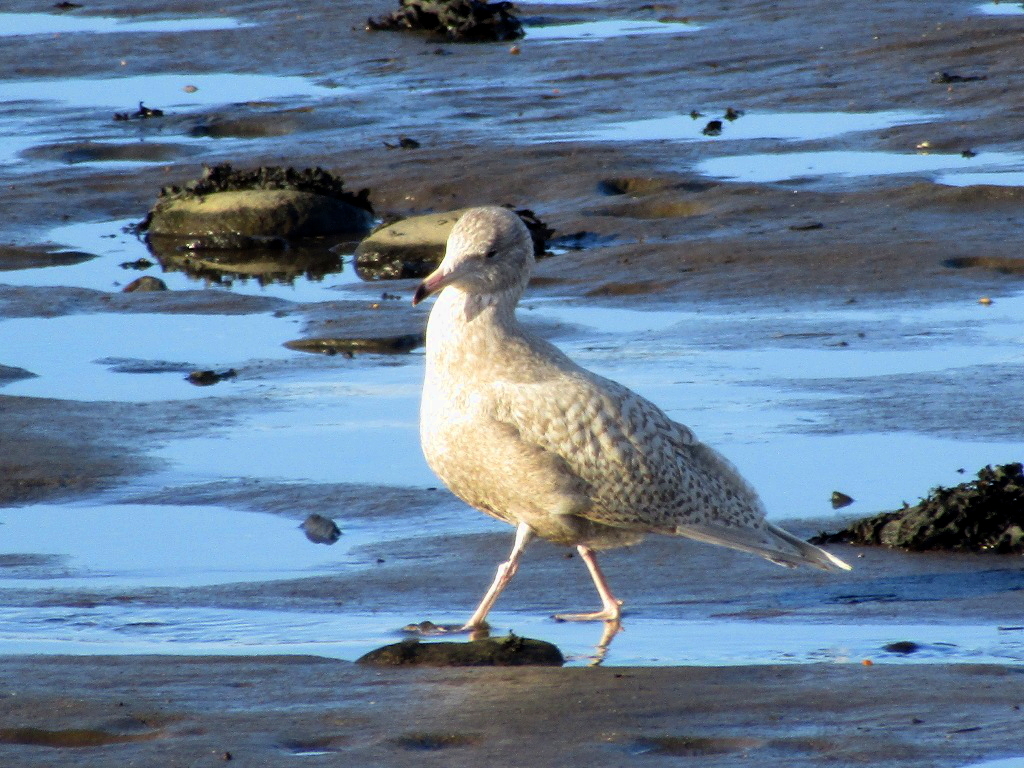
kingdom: Animalia
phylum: Chordata
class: Aves
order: Charadriiformes
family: Laridae
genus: Larus
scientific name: Larus hyperboreus
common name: Glaucous gull
